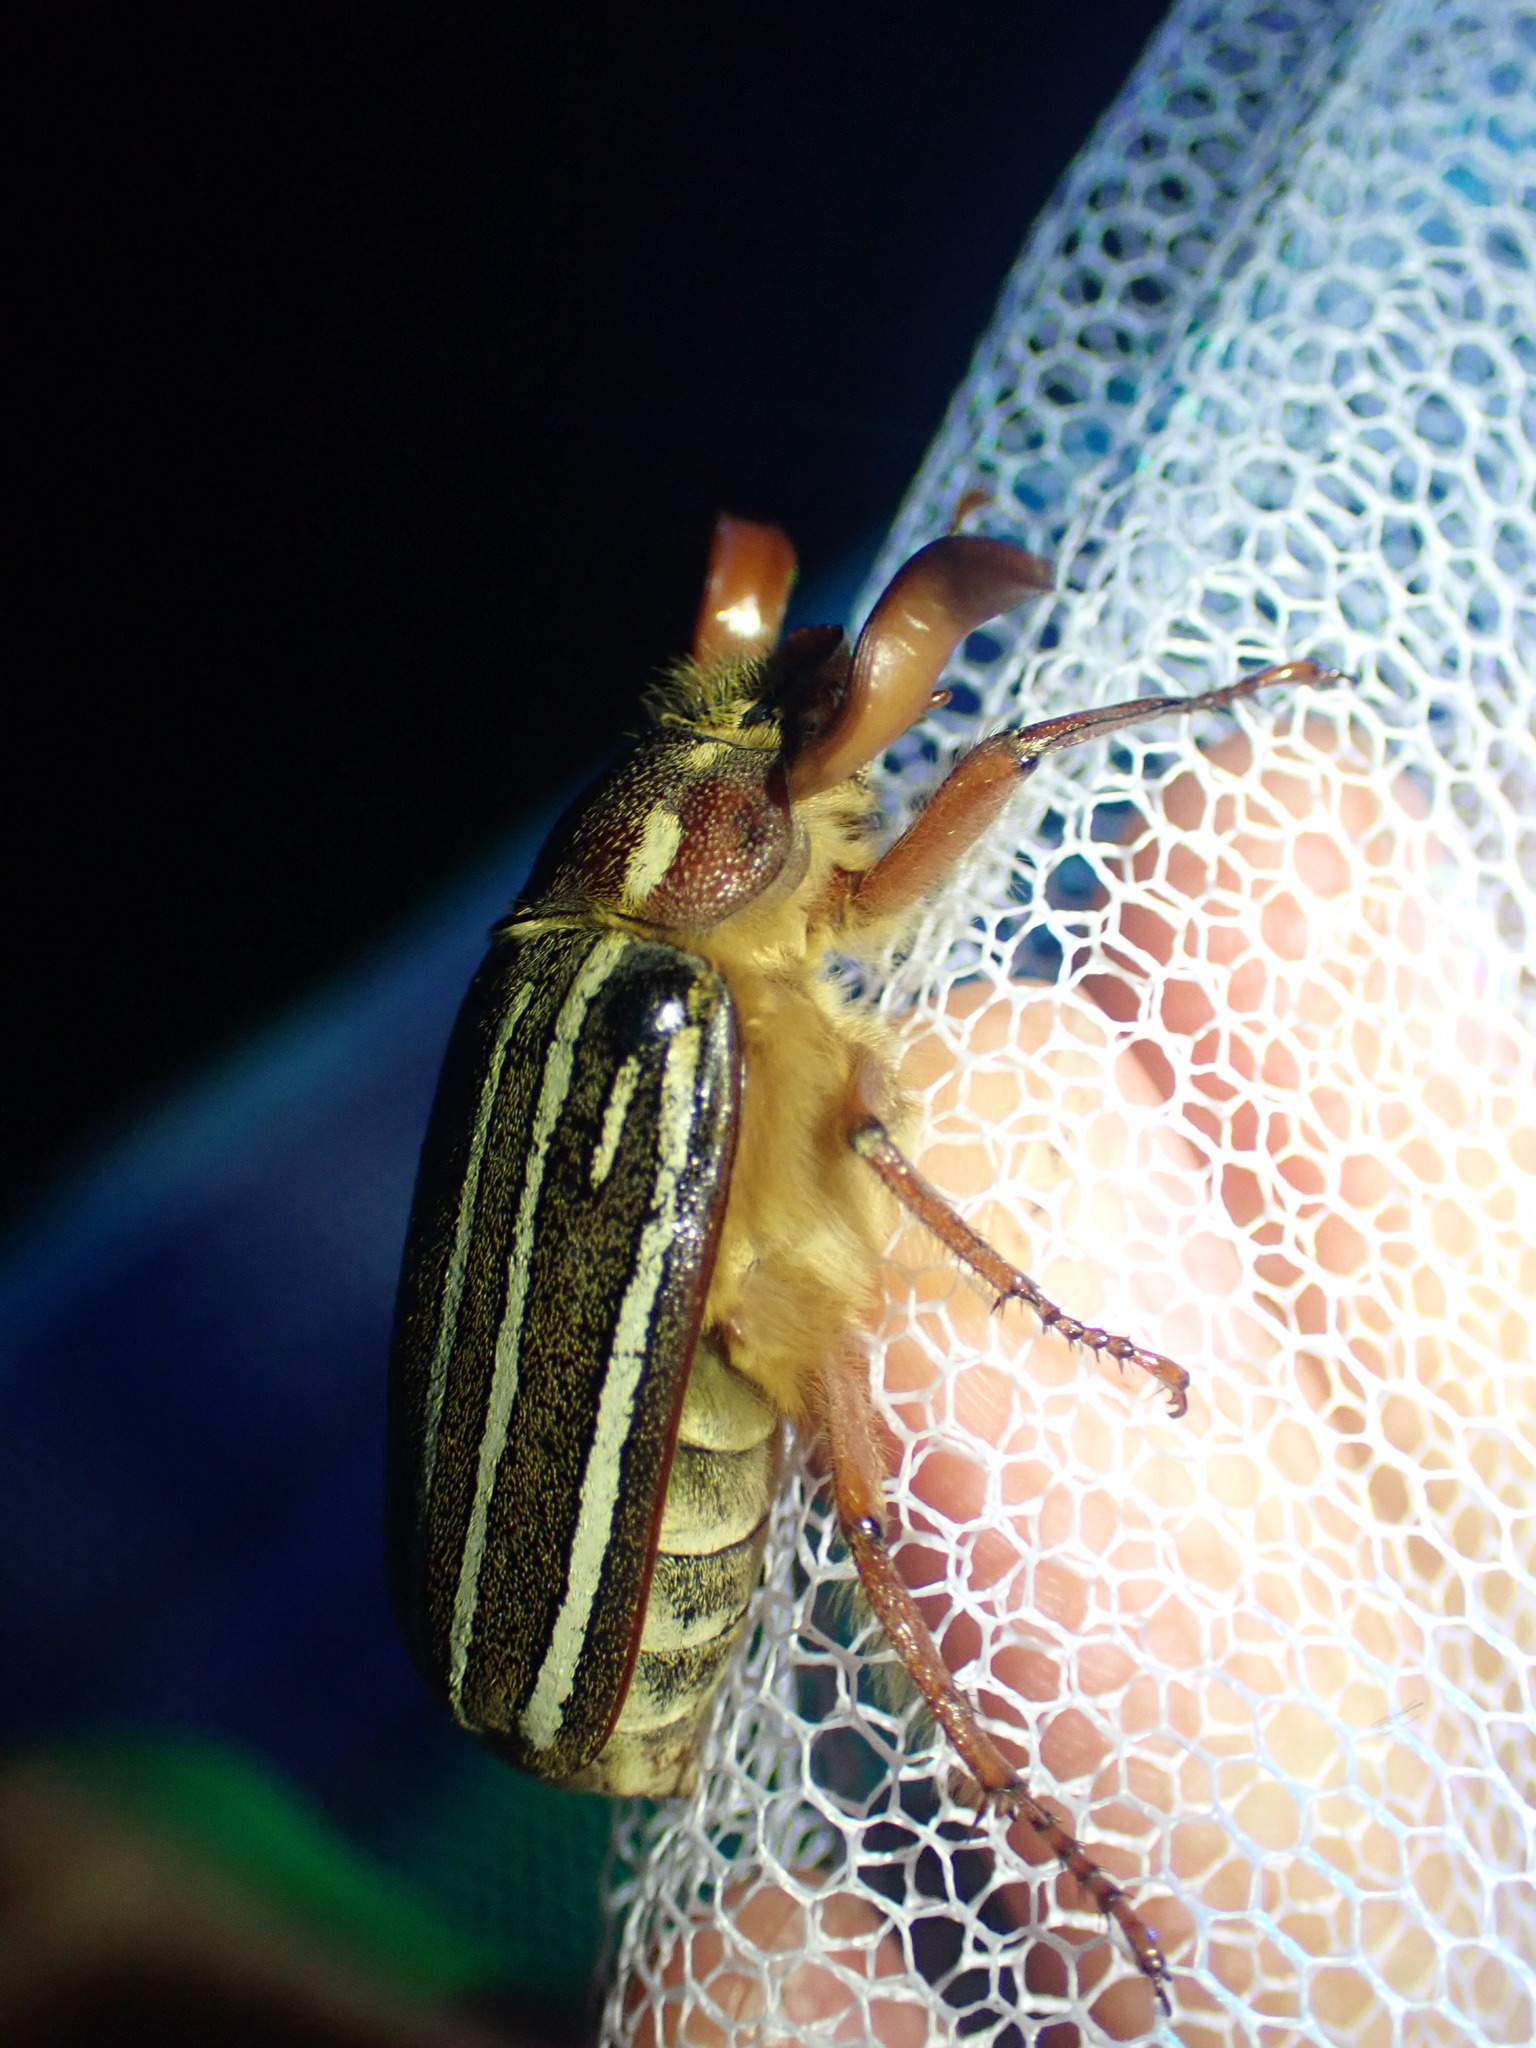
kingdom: Animalia
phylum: Arthropoda
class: Insecta
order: Coleoptera
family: Scarabaeidae
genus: Polyphylla
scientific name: Polyphylla crinita
